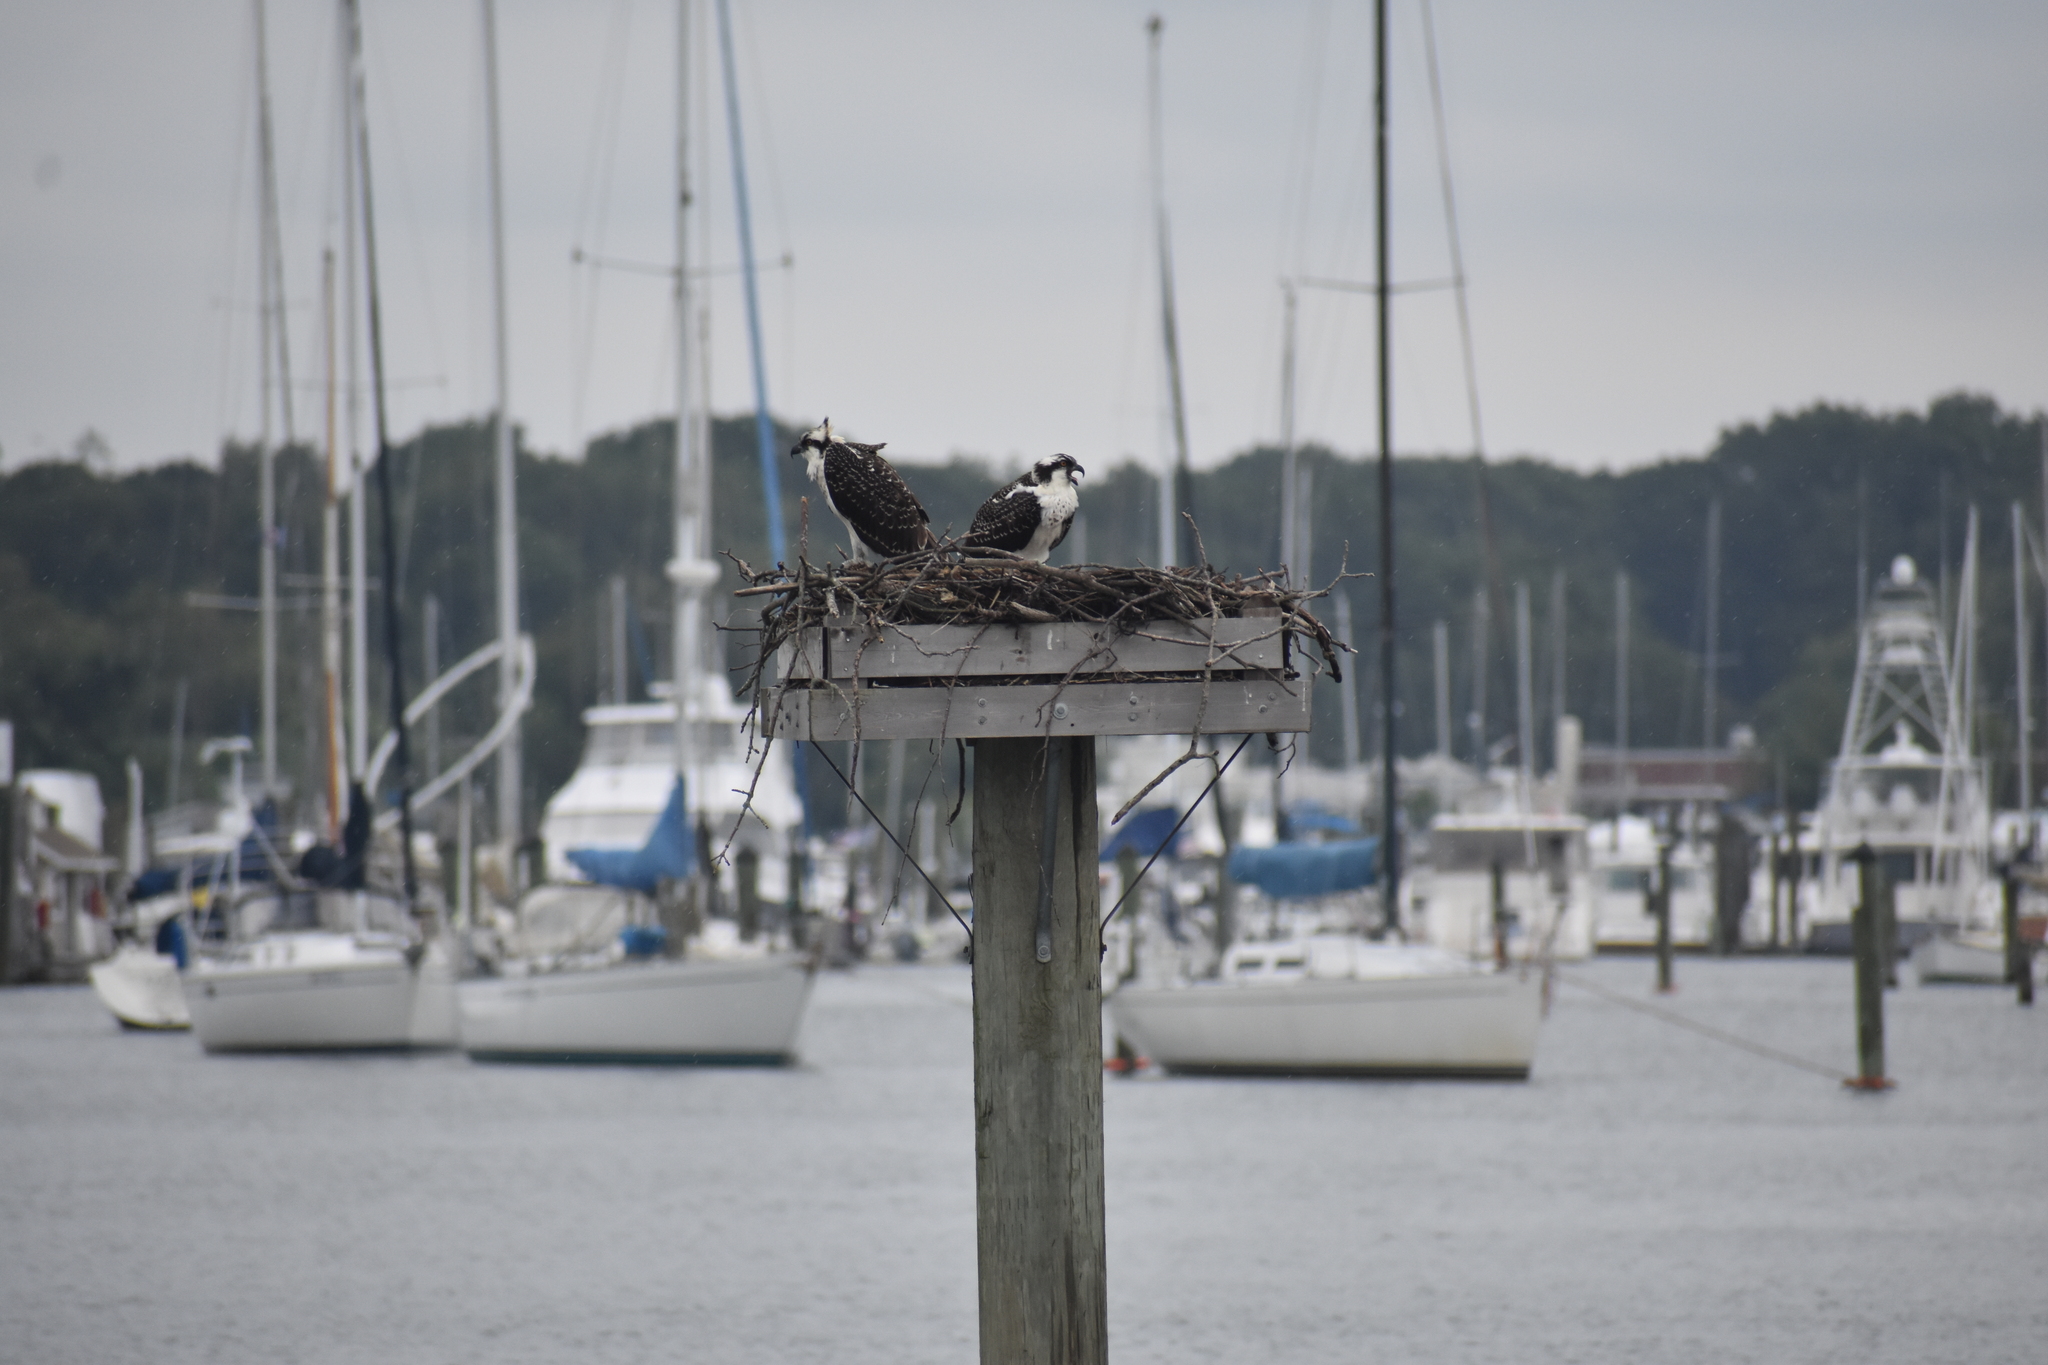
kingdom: Animalia
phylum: Chordata
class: Aves
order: Accipitriformes
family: Pandionidae
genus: Pandion
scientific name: Pandion haliaetus
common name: Osprey
